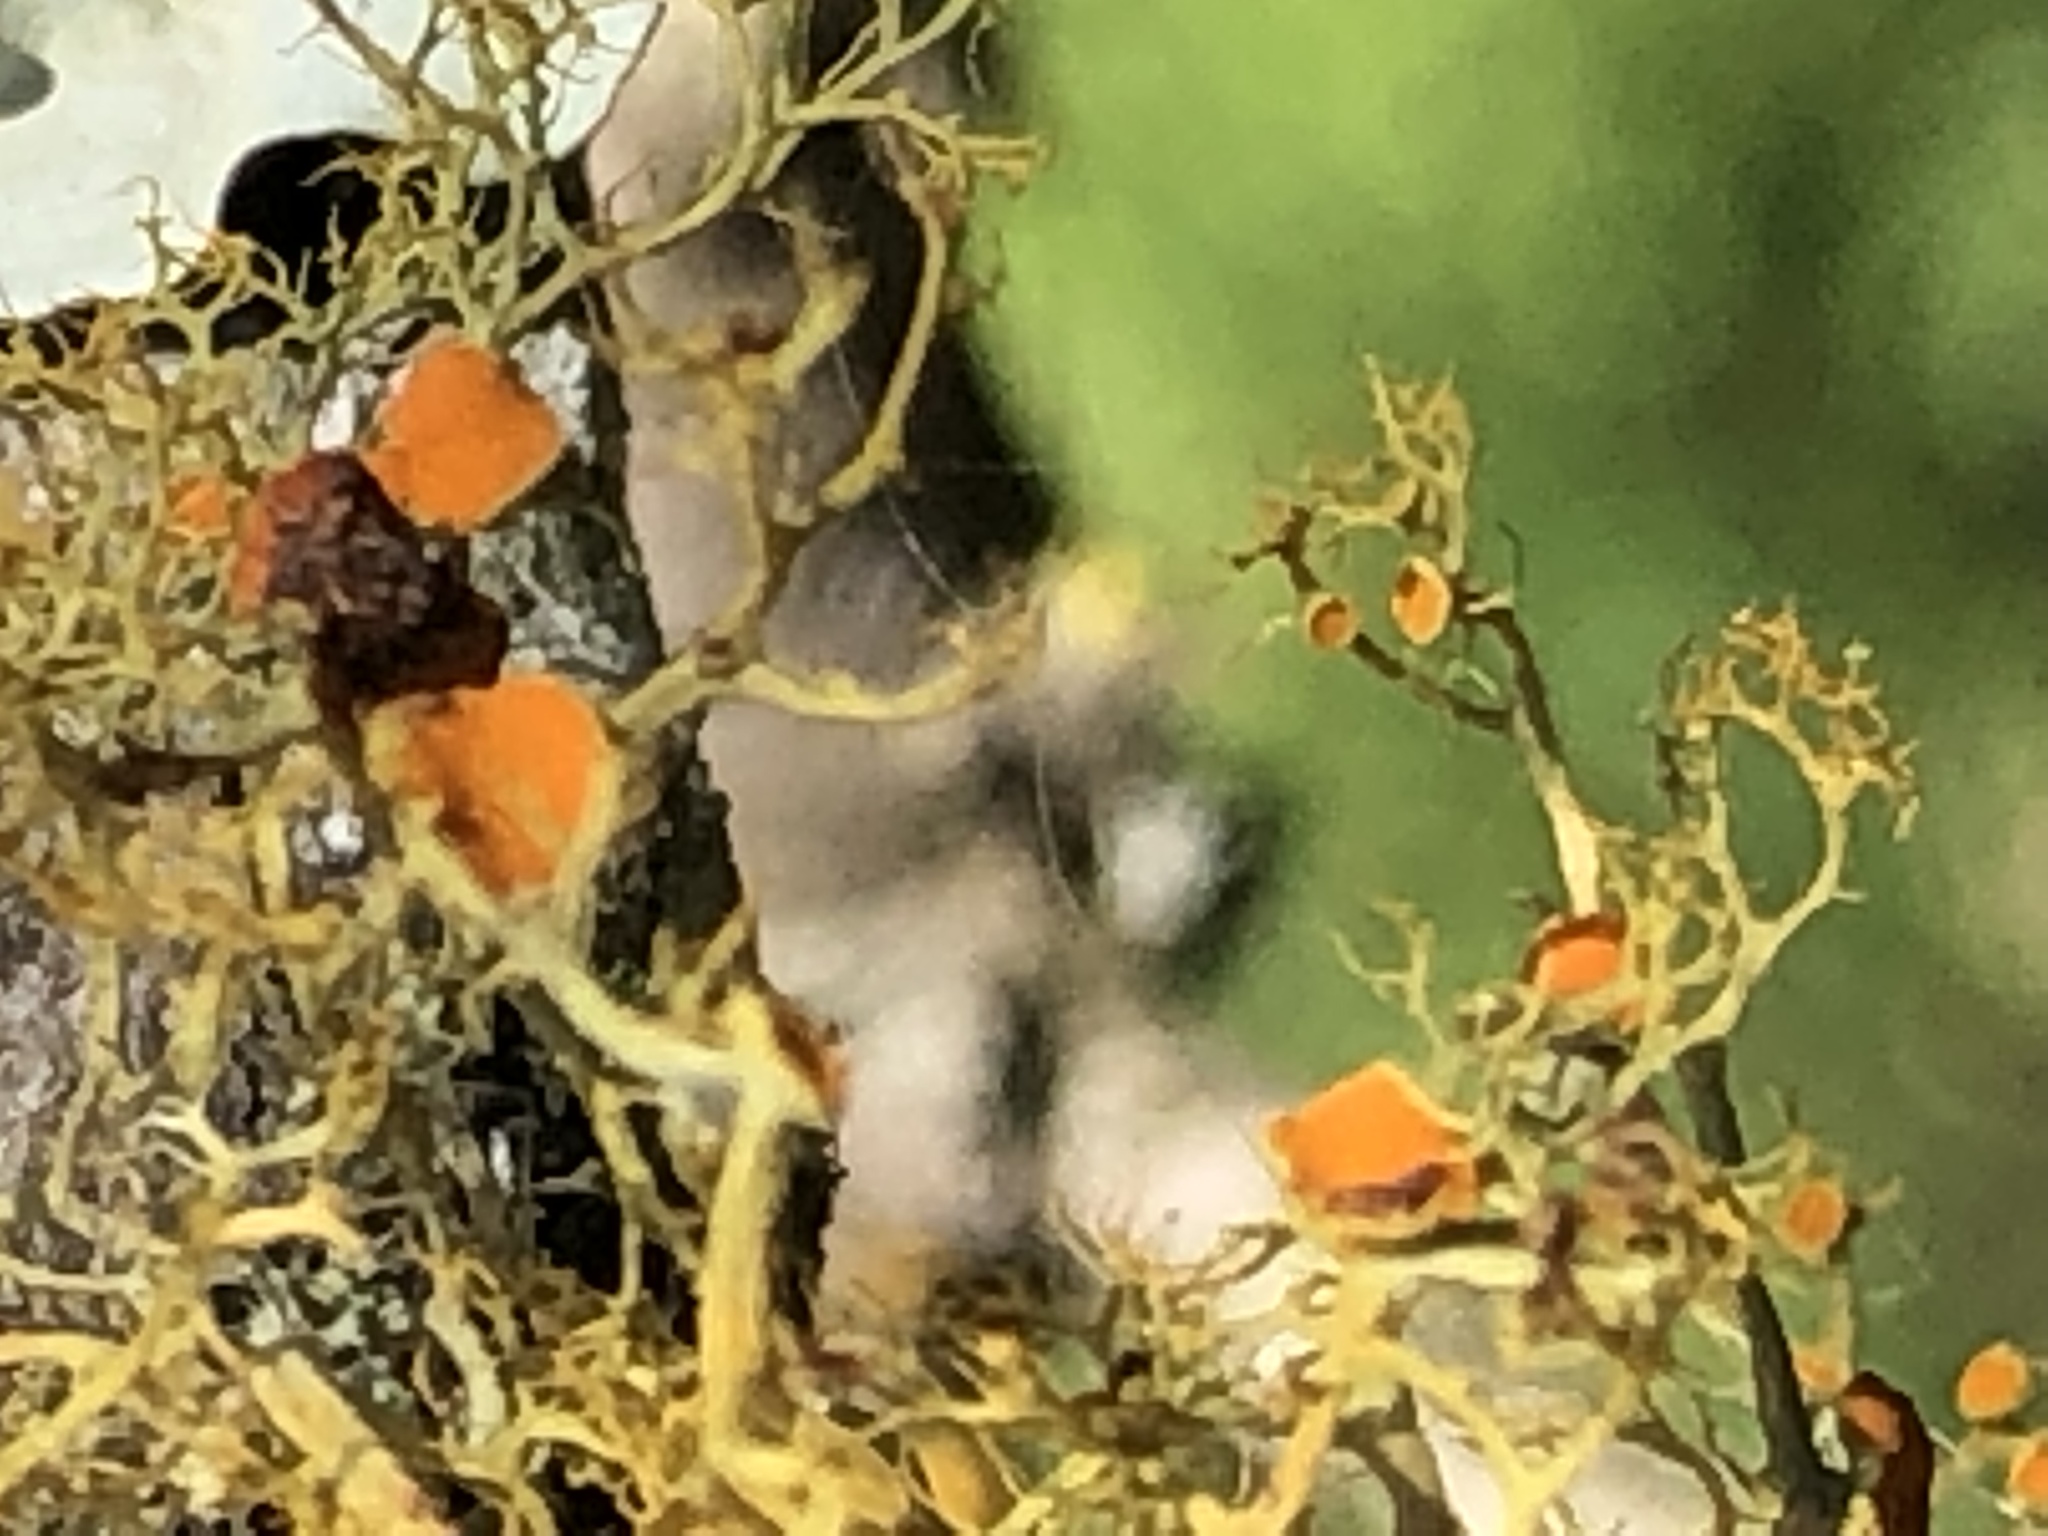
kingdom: Fungi
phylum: Ascomycota
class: Lecanoromycetes
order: Teloschistales
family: Teloschistaceae
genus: Teloschistes
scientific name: Teloschistes exilis
